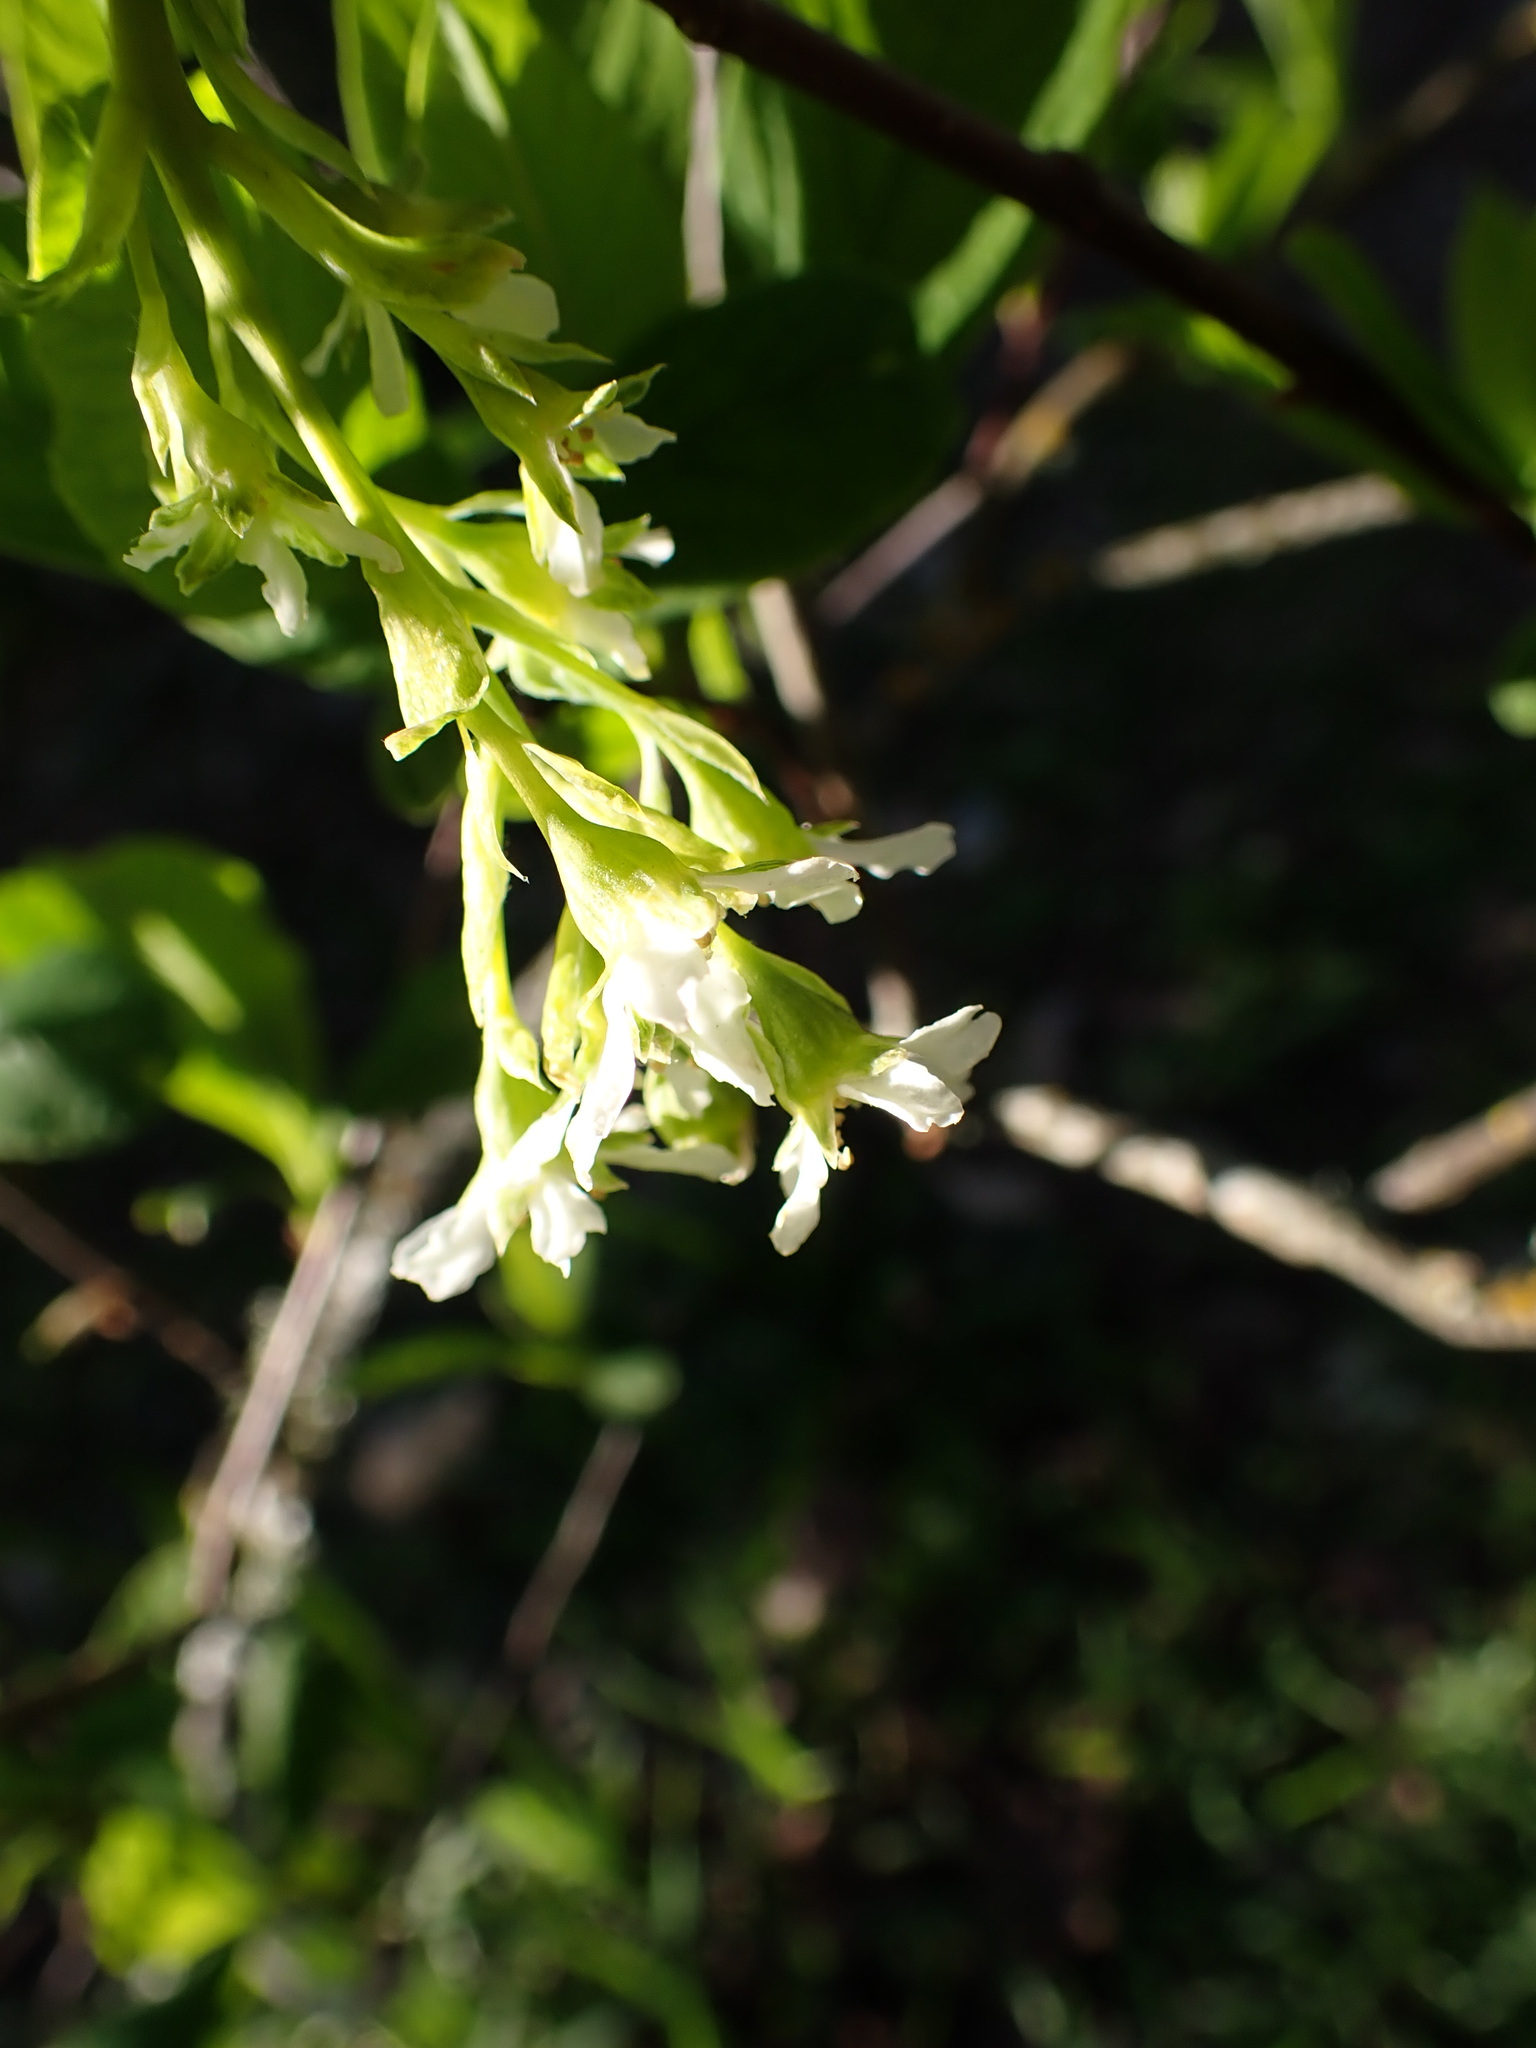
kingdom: Plantae
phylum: Tracheophyta
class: Magnoliopsida
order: Rosales
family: Rosaceae
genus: Oemleria
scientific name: Oemleria cerasiformis
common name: Osoberry
